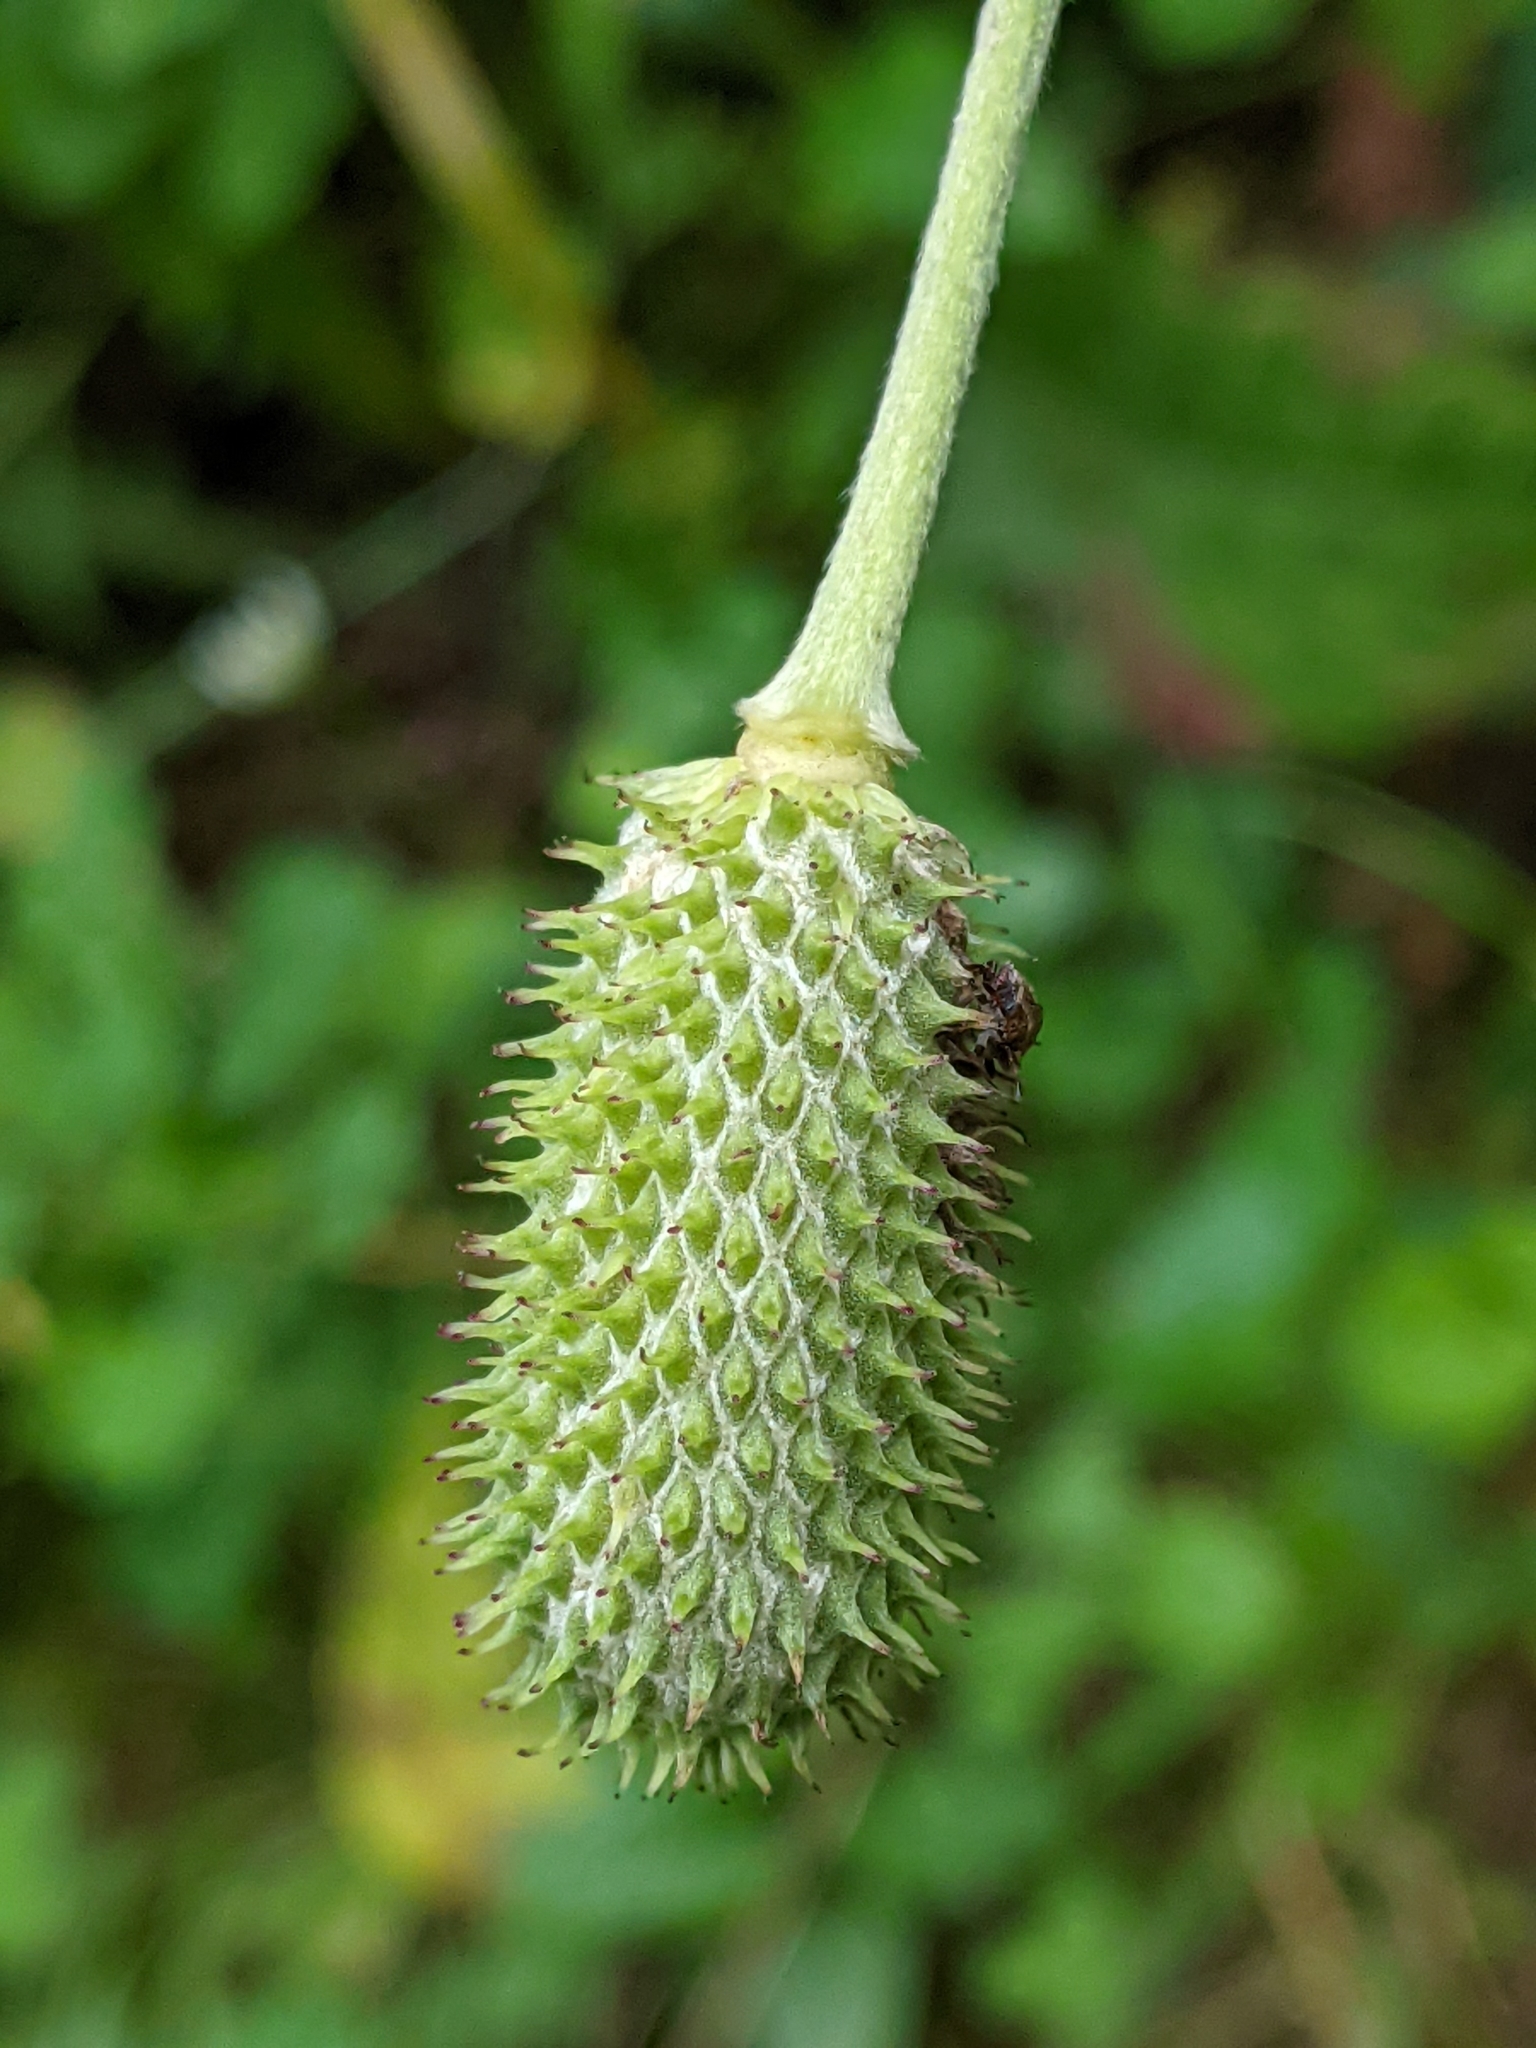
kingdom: Plantae
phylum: Tracheophyta
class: Magnoliopsida
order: Ranunculales
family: Ranunculaceae
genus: Anemone
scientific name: Anemone virginiana
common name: Tall anemone
